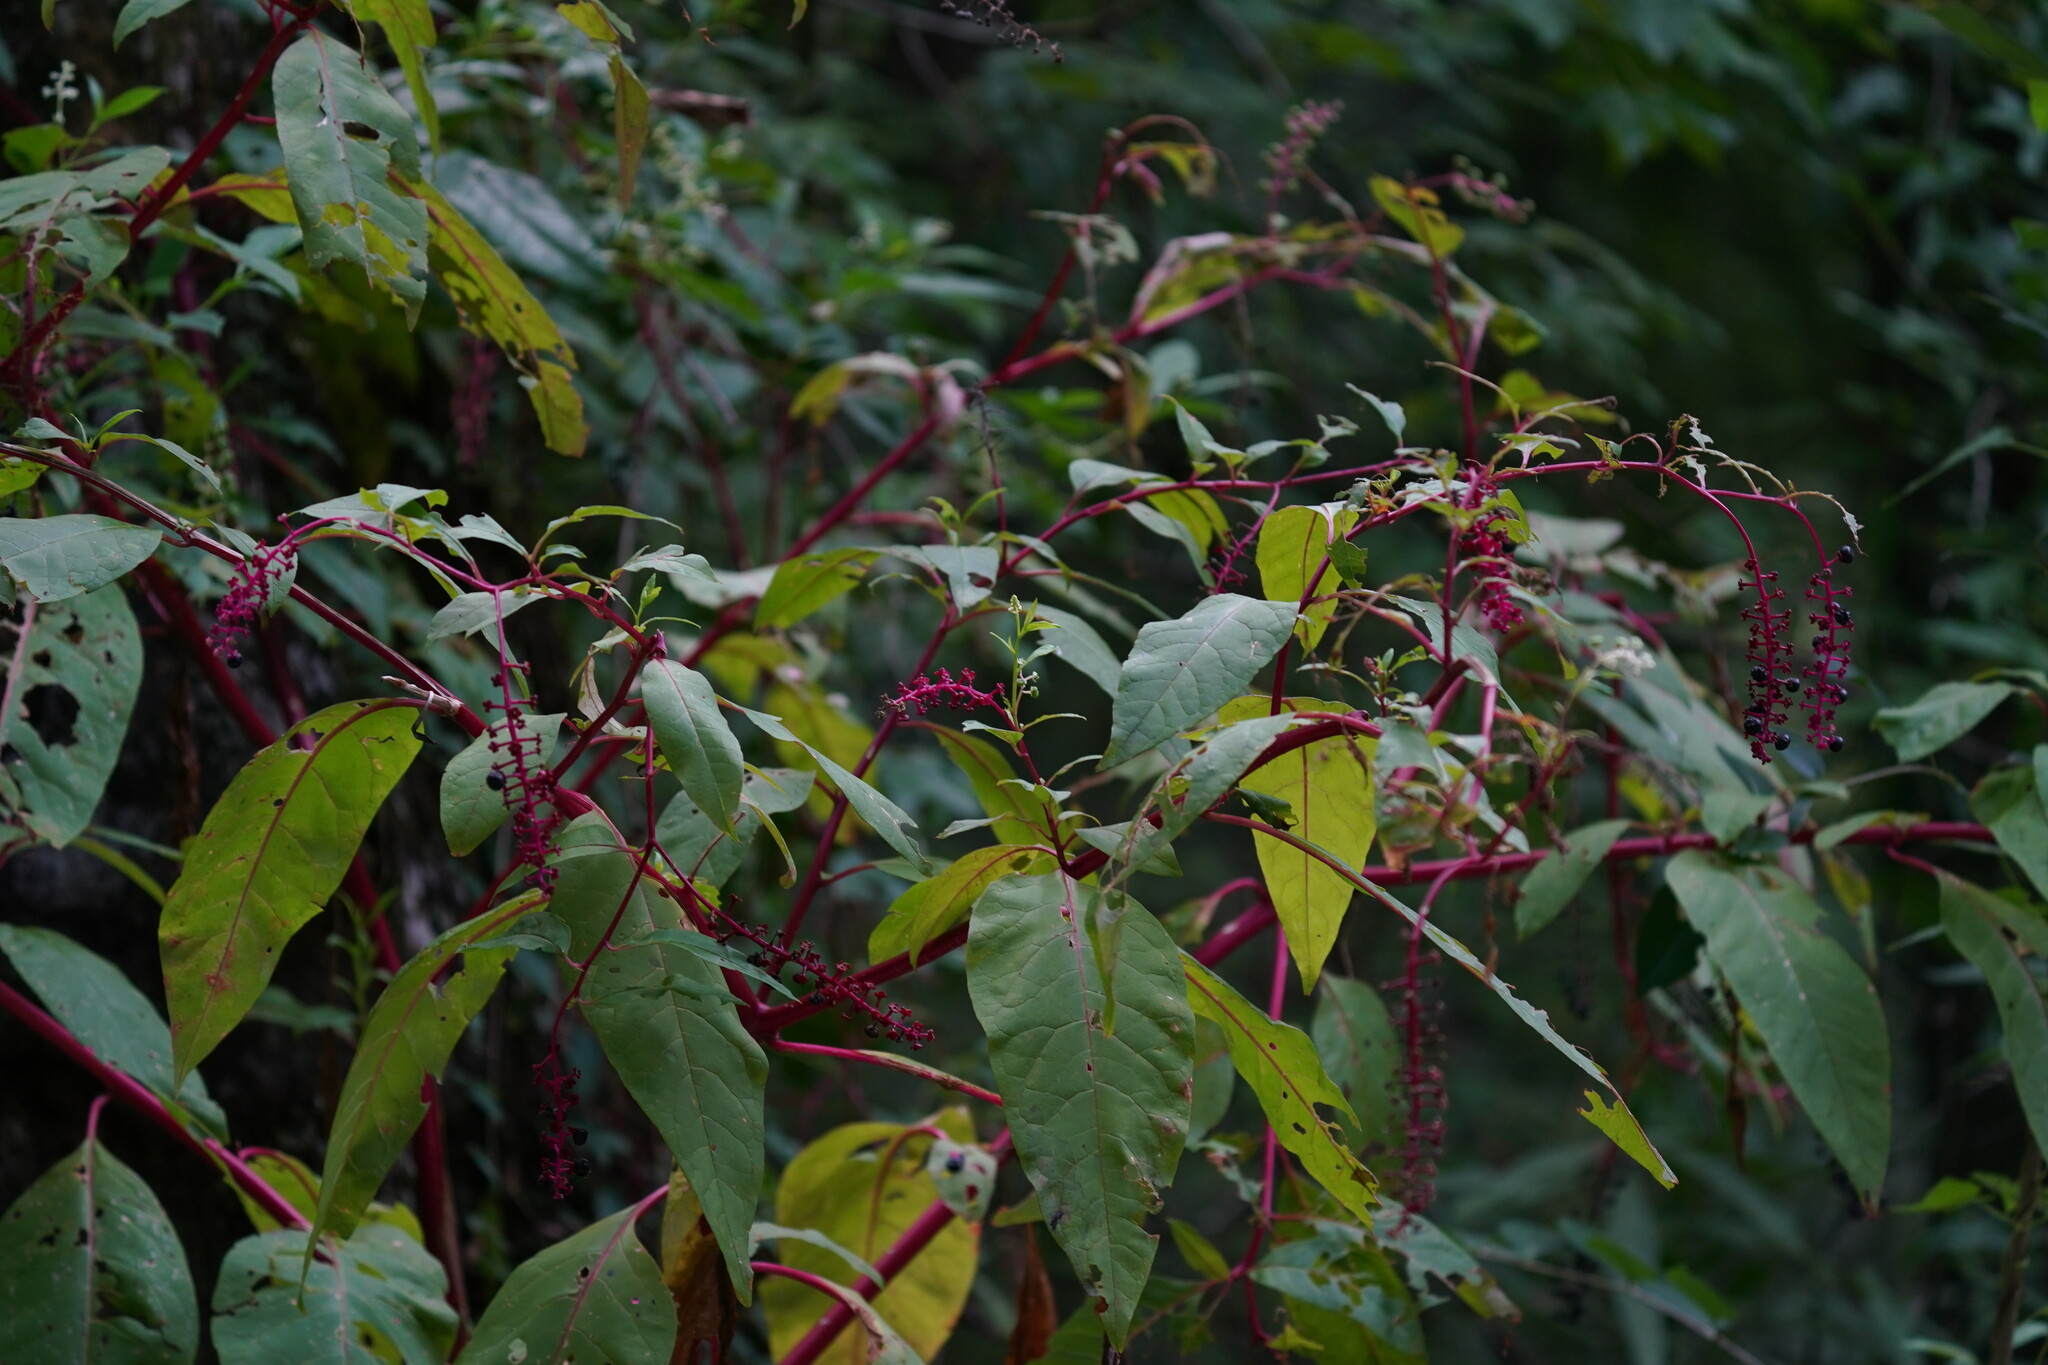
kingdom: Plantae
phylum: Tracheophyta
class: Magnoliopsida
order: Caryophyllales
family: Phytolaccaceae
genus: Phytolacca
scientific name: Phytolacca americana
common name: American pokeweed
